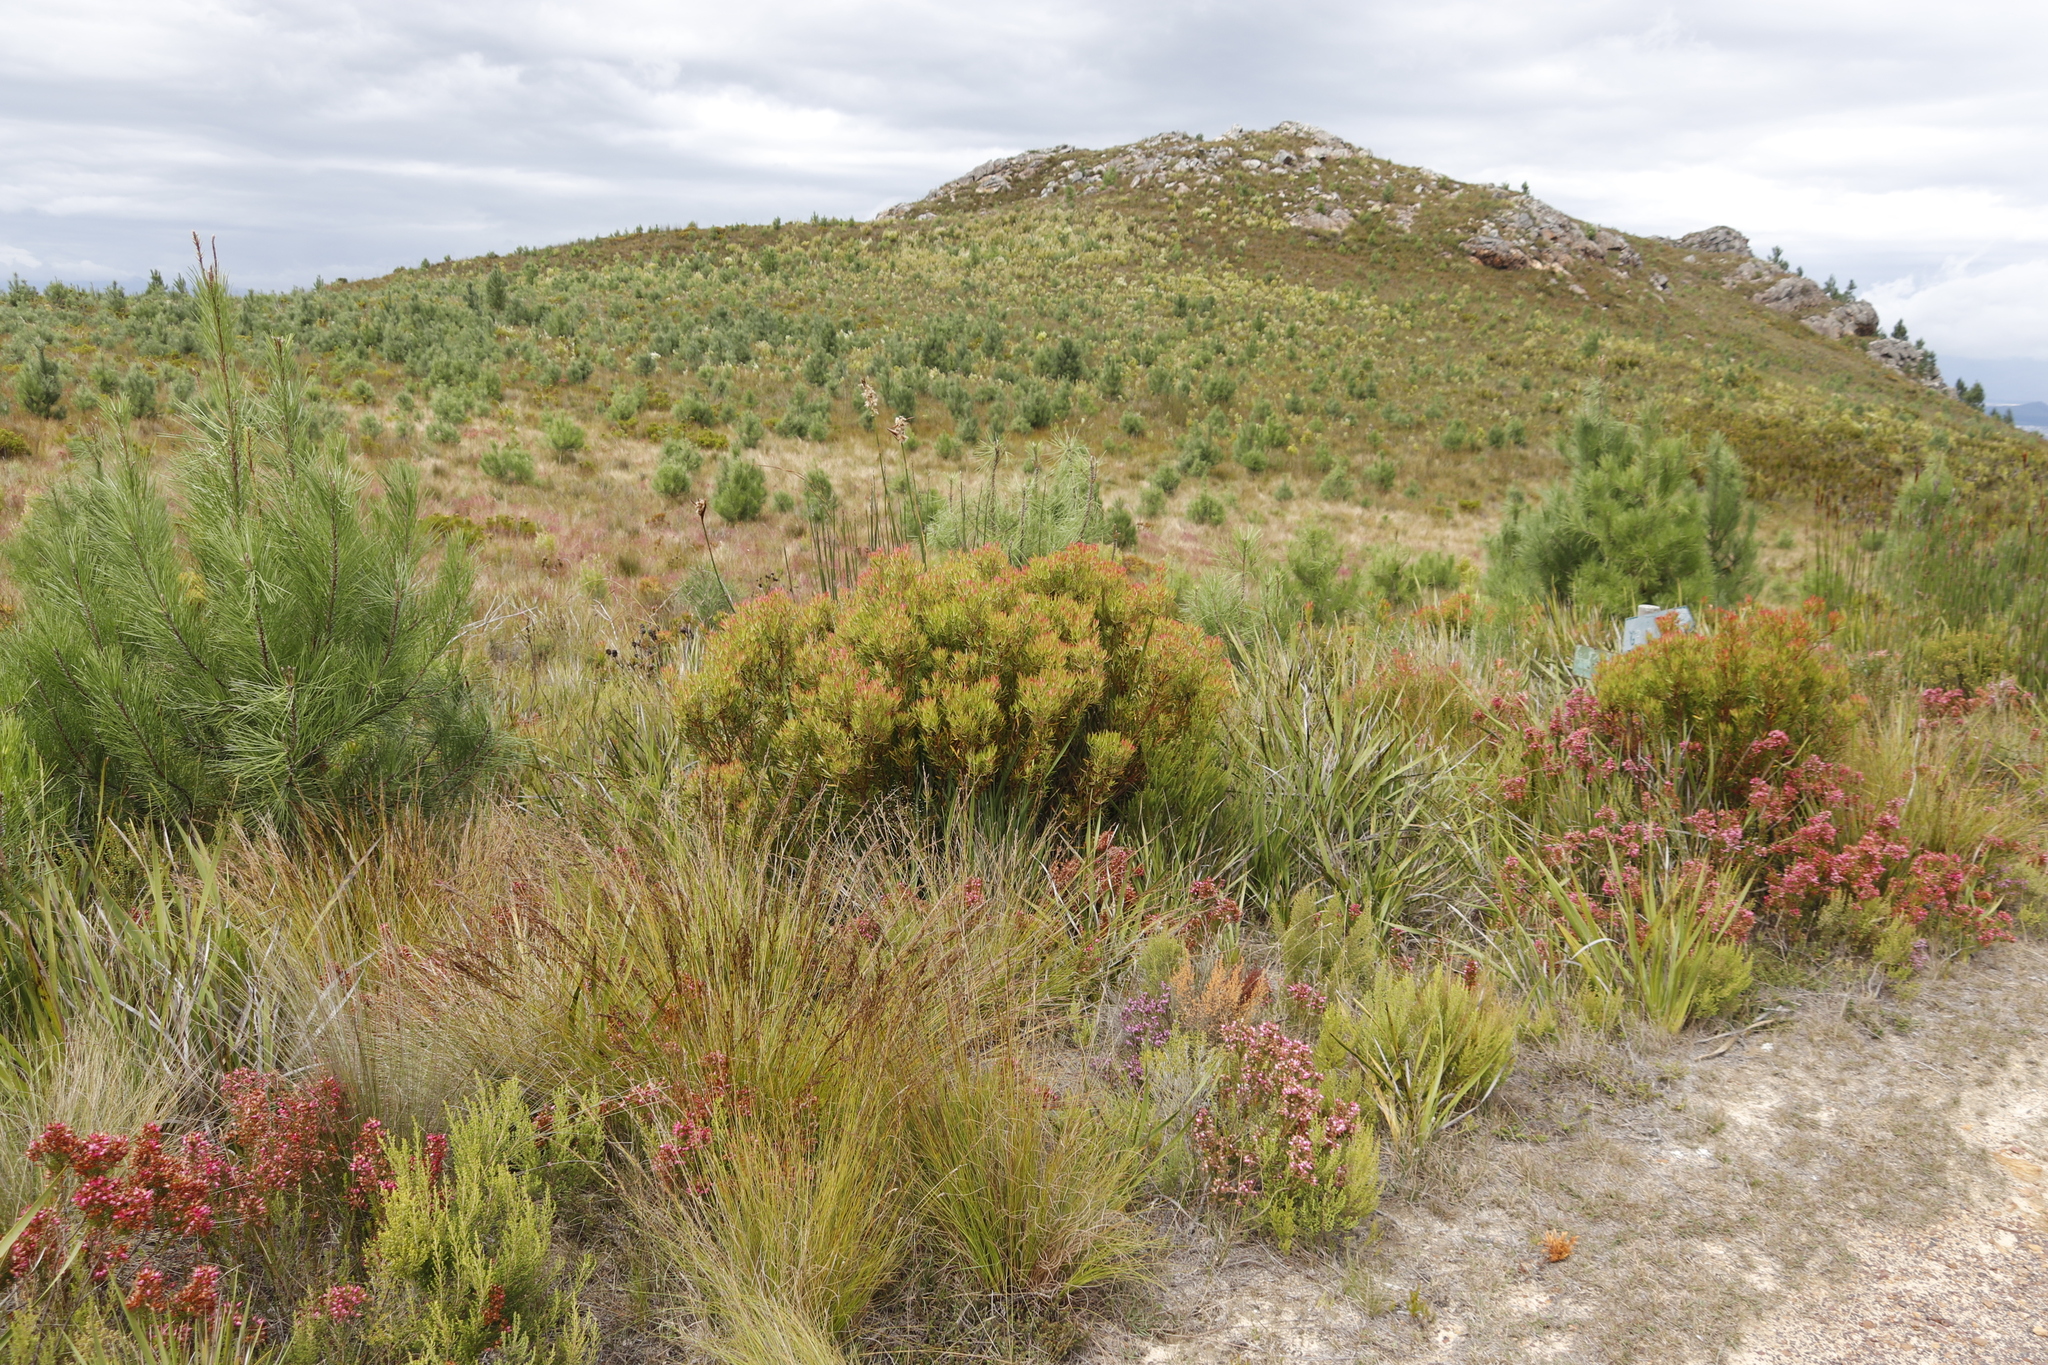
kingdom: Plantae
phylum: Tracheophyta
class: Magnoliopsida
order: Proteales
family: Proteaceae
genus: Leucadendron
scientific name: Leucadendron spissifolium
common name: Spear-leaf conebush
